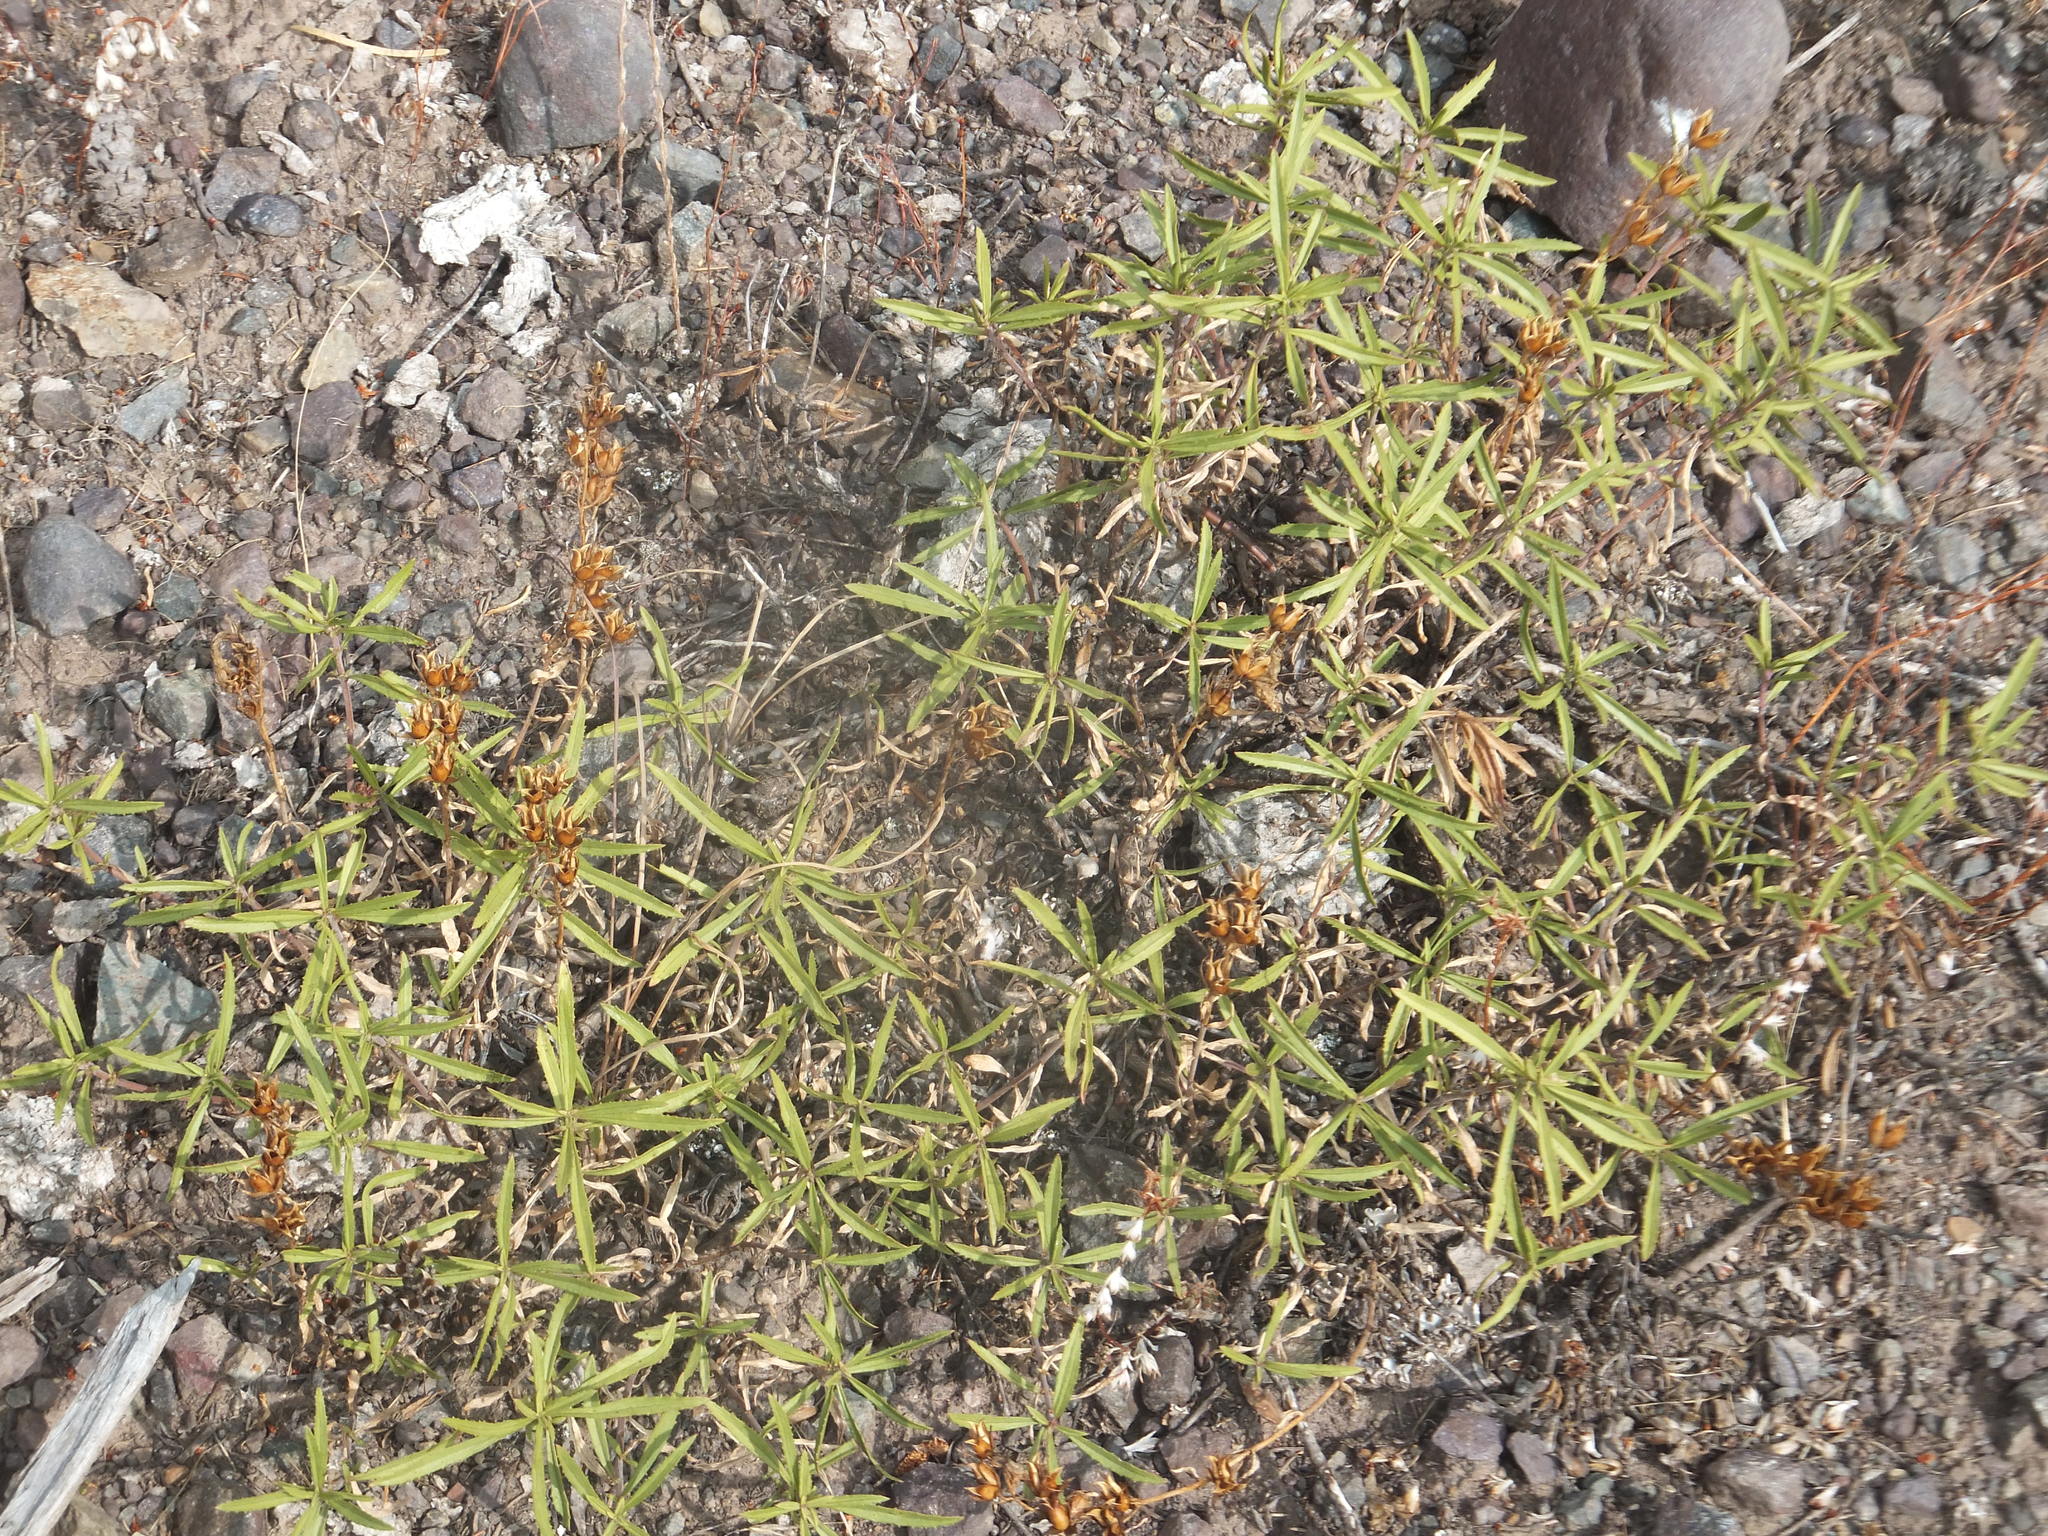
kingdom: Plantae
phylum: Tracheophyta
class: Magnoliopsida
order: Lamiales
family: Plantaginaceae
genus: Penstemon
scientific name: Penstemon fruticosus
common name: Bush penstemon
